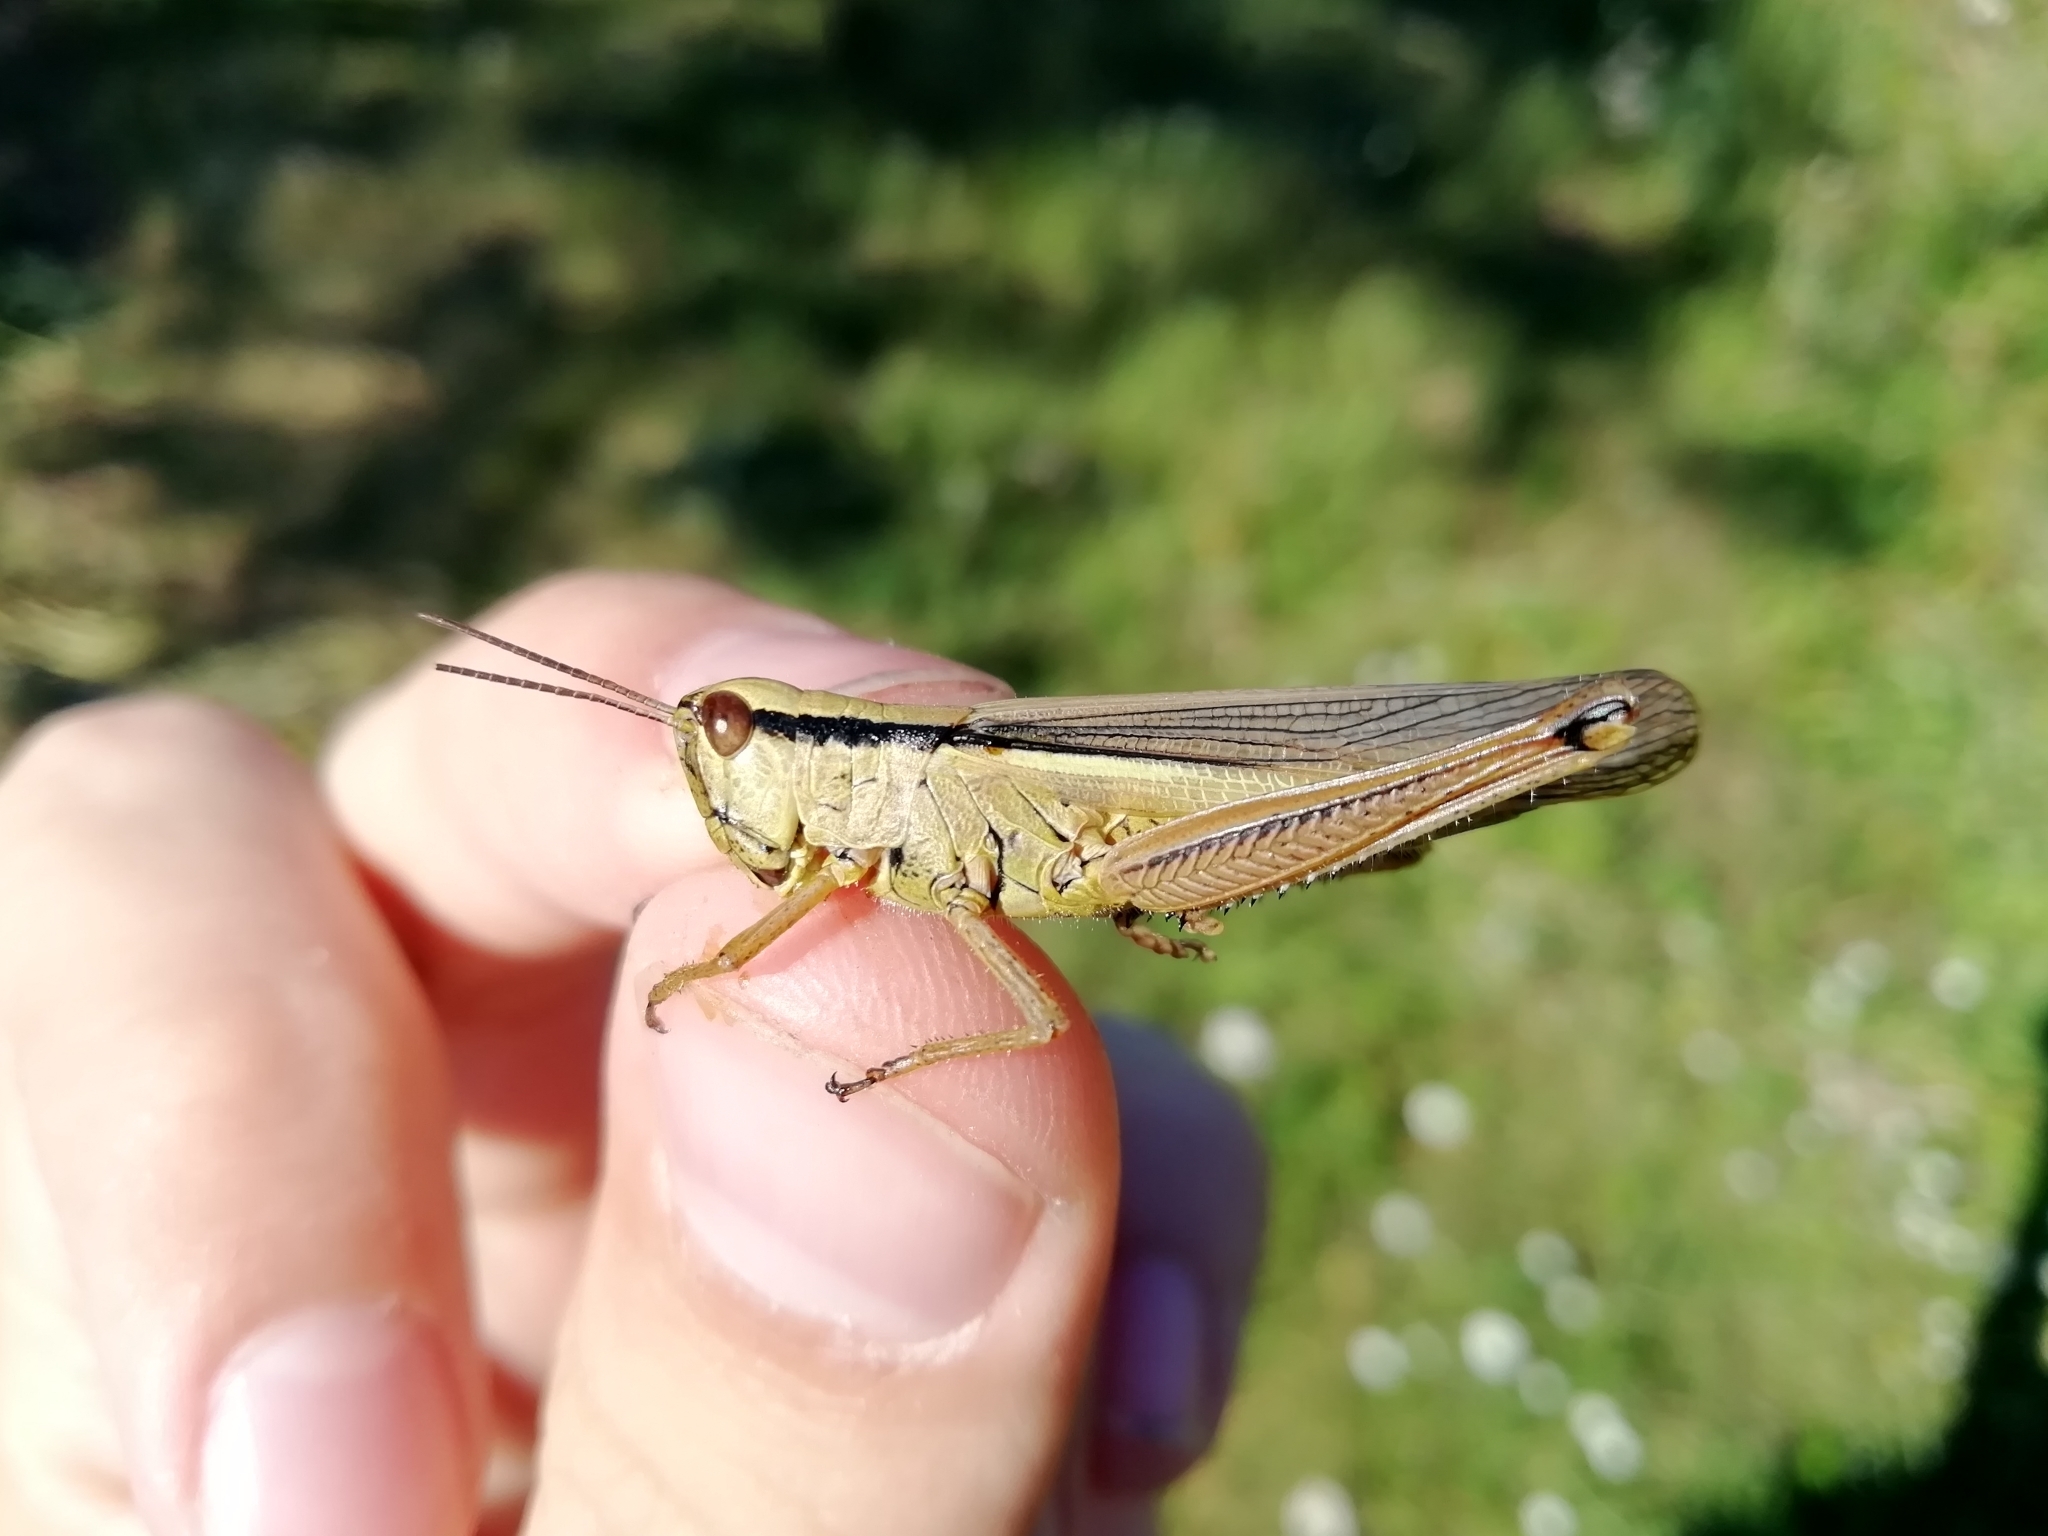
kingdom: Animalia
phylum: Arthropoda
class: Insecta
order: Orthoptera
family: Acrididae
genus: Mecostethus
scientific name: Mecostethus parapleurus
